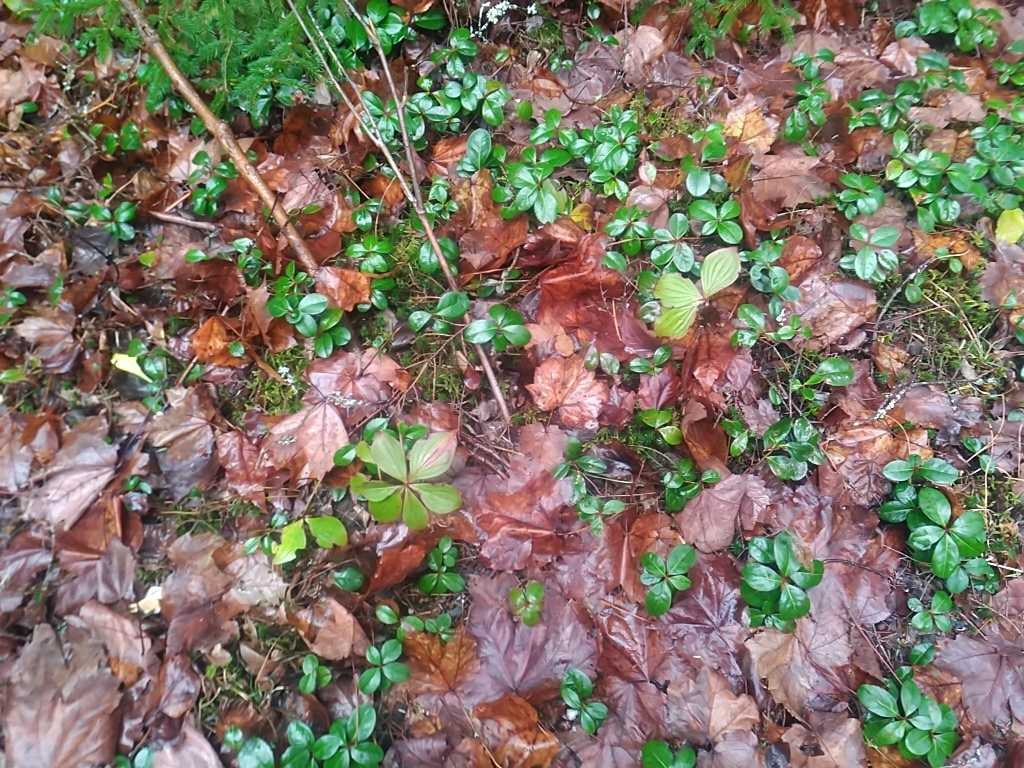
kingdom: Plantae
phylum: Tracheophyta
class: Magnoliopsida
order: Cornales
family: Cornaceae
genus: Cornus
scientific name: Cornus canadensis
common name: Creeping dogwood
